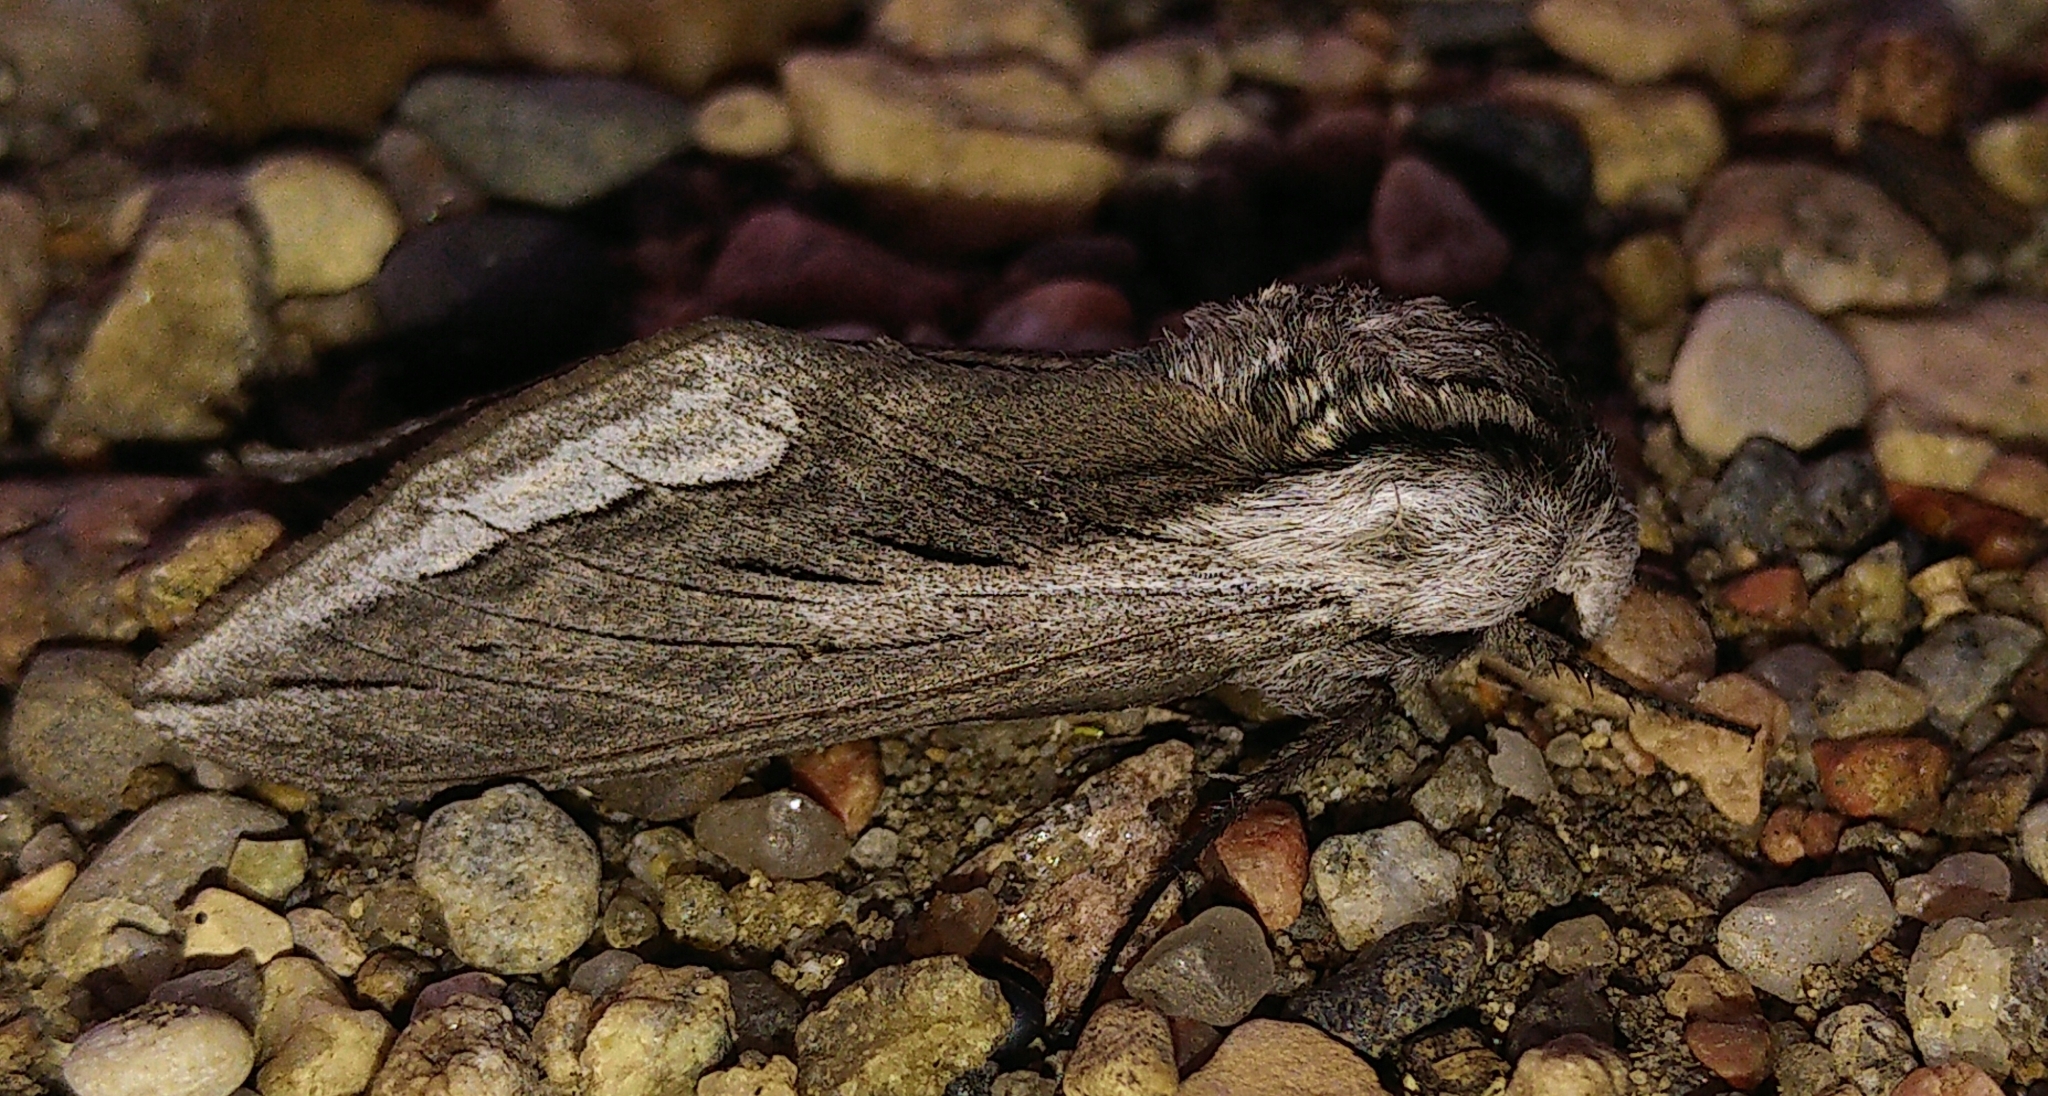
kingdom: Animalia
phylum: Arthropoda
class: Insecta
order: Lepidoptera
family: Sphingidae
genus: Sphinx
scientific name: Sphinx vashti
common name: Snowberry sphinx
